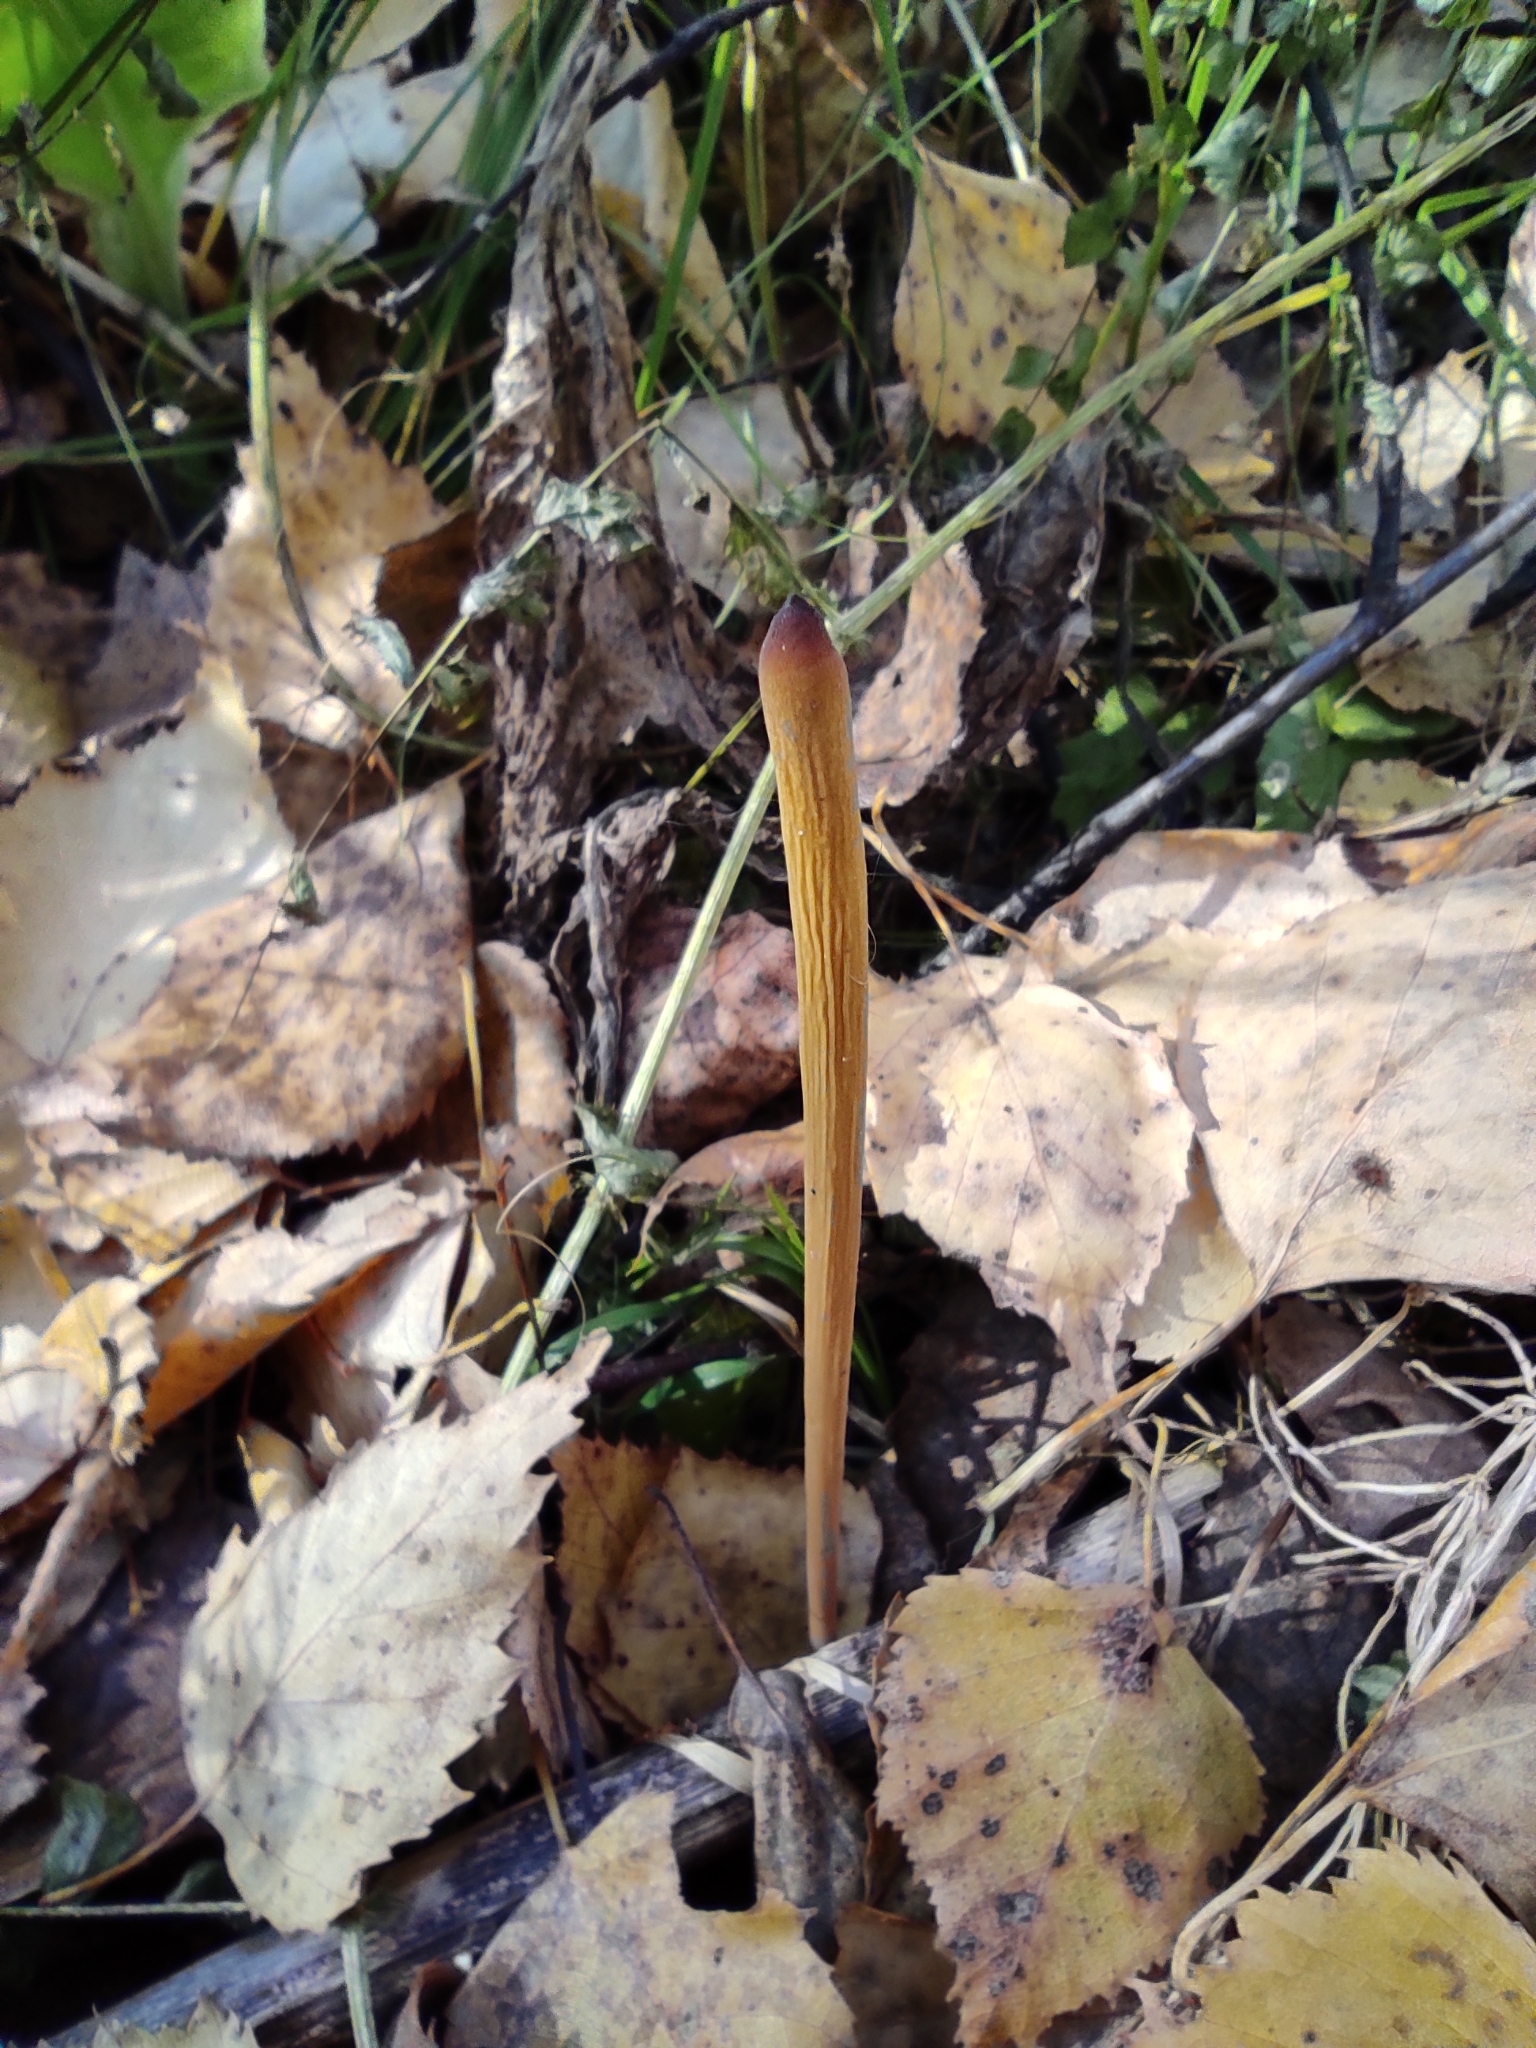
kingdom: Fungi
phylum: Basidiomycota
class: Agaricomycetes
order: Agaricales
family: Typhulaceae
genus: Typhula
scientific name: Typhula fistulosa
